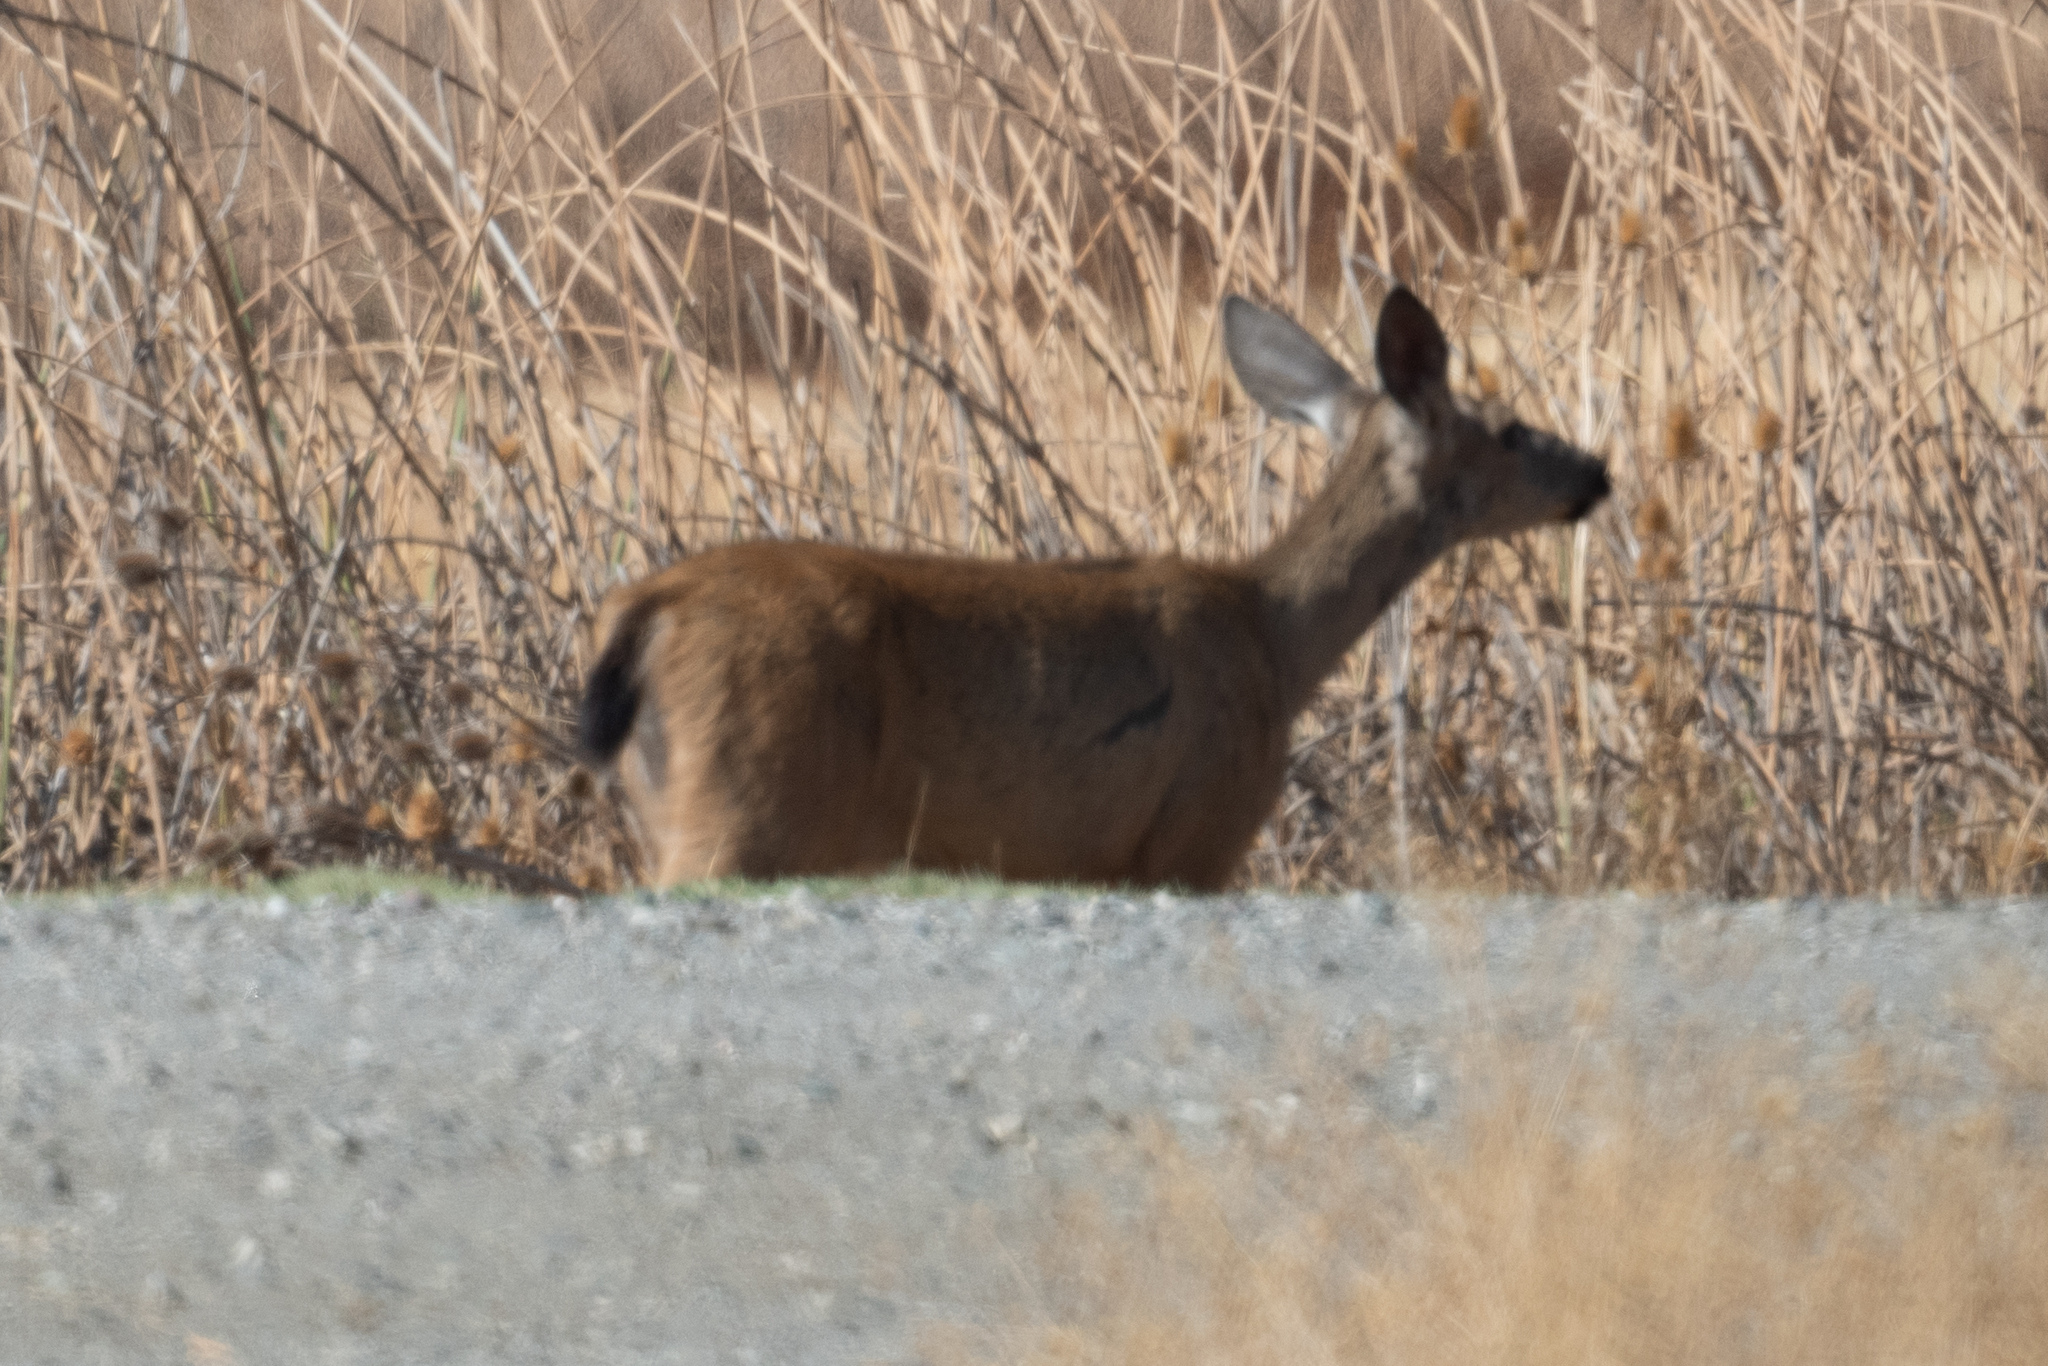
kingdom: Animalia
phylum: Chordata
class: Mammalia
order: Artiodactyla
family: Cervidae
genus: Odocoileus
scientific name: Odocoileus hemionus
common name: Mule deer
